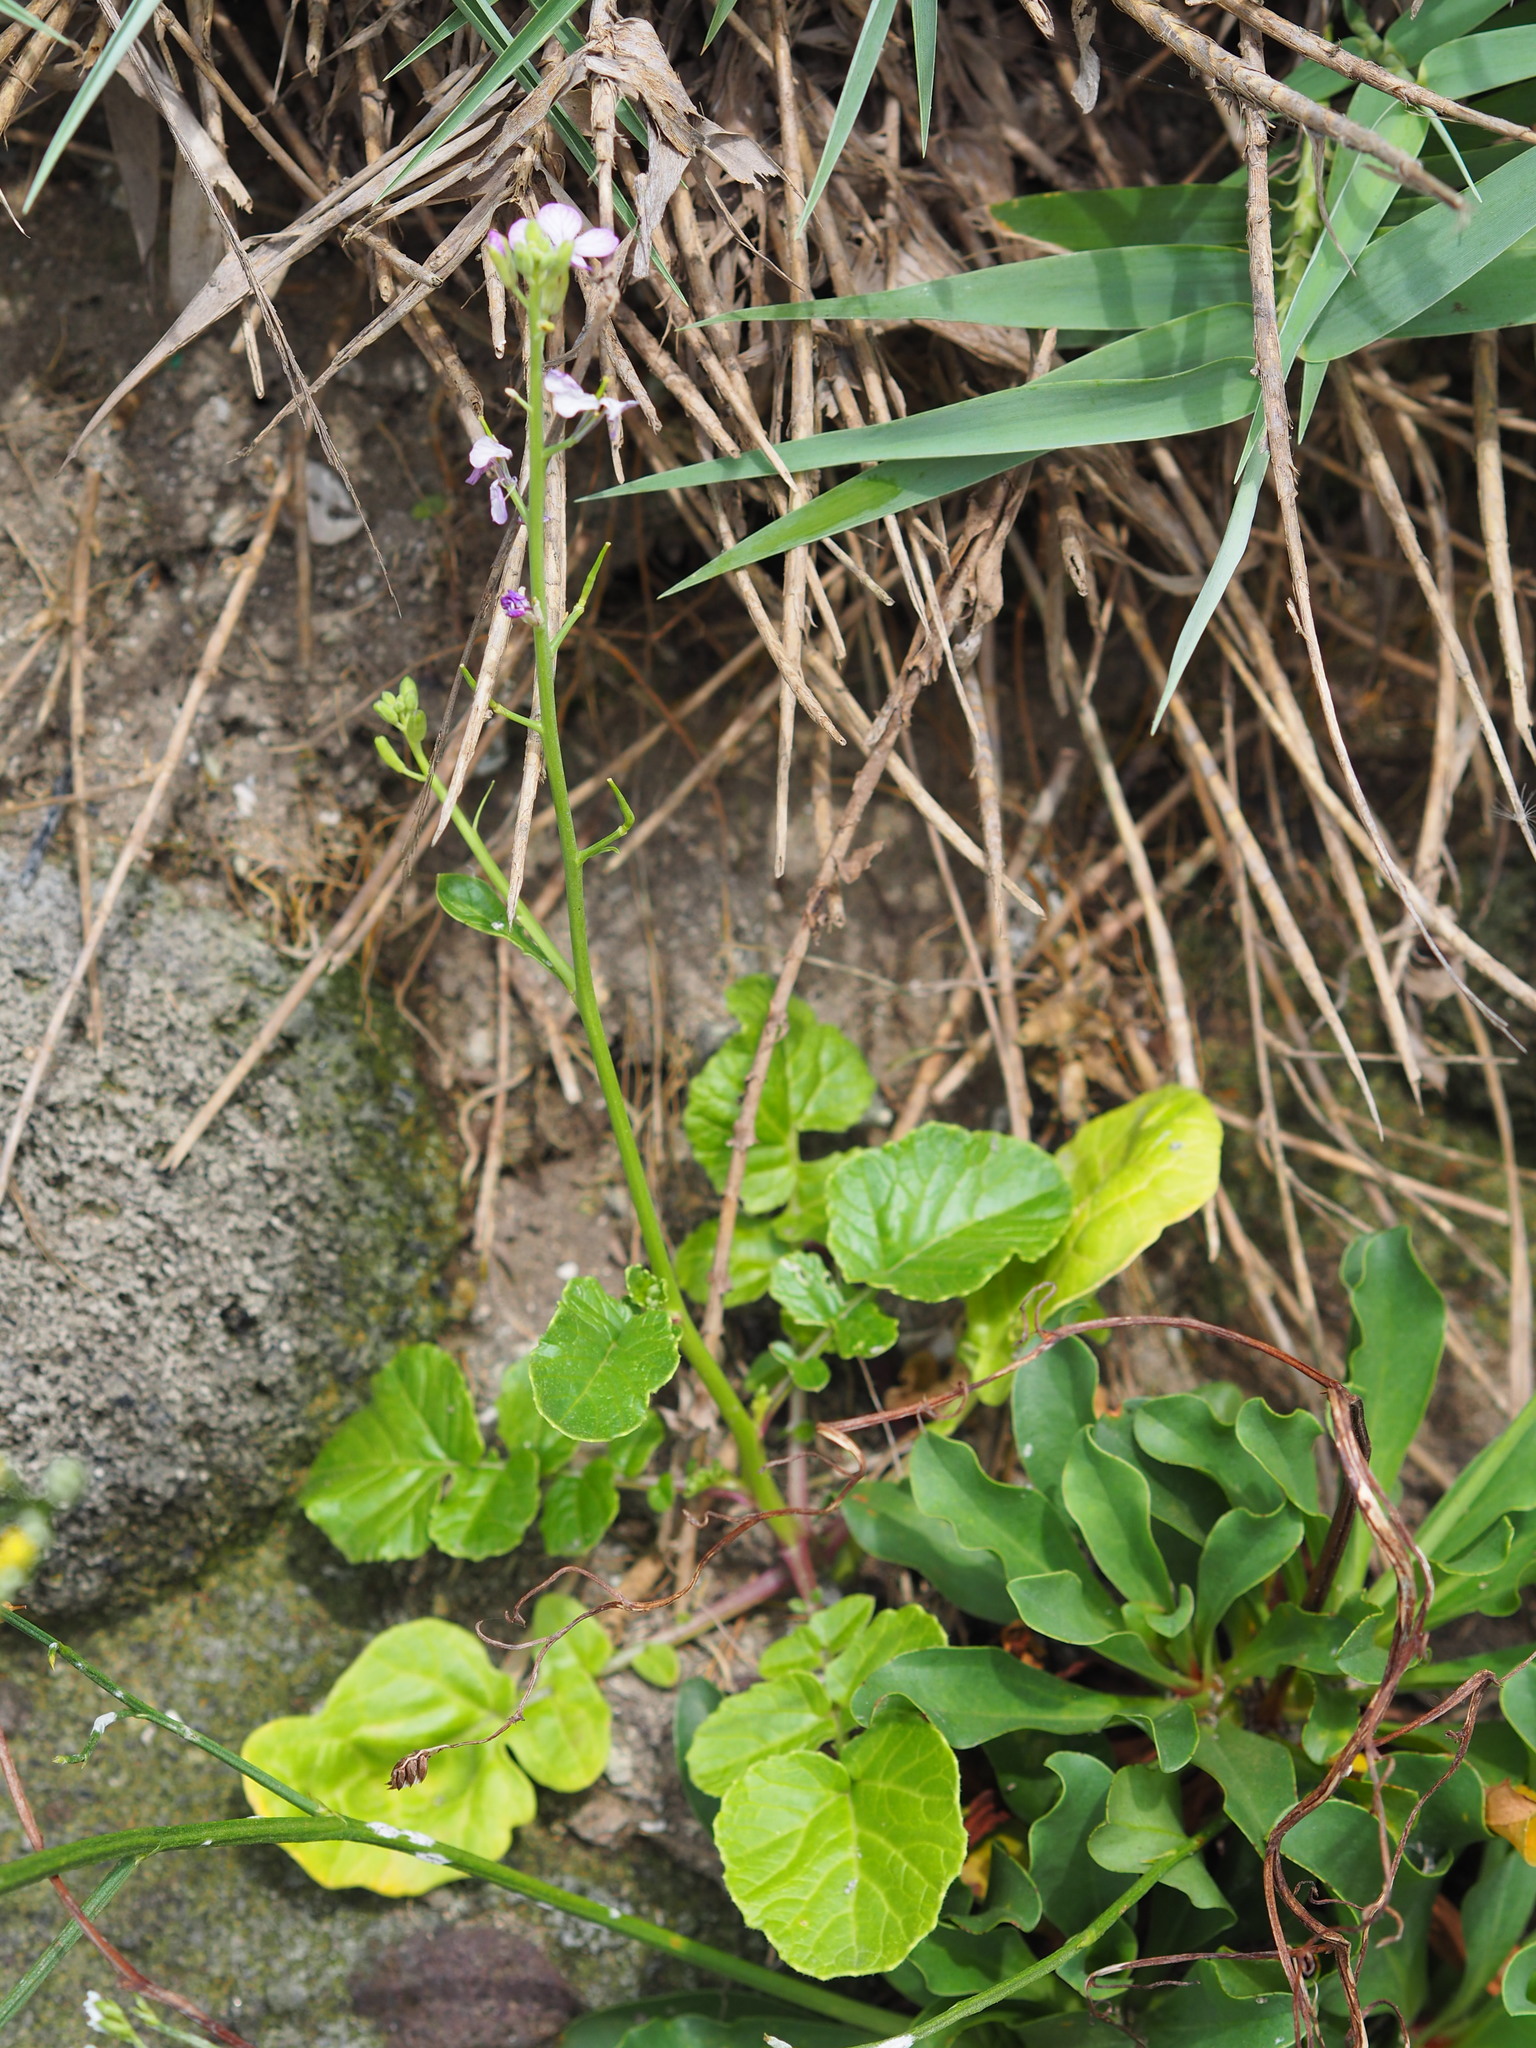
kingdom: Plantae
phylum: Tracheophyta
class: Magnoliopsida
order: Brassicales
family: Brassicaceae
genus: Raphanus
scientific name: Raphanus sativus
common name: Cultivated radish
